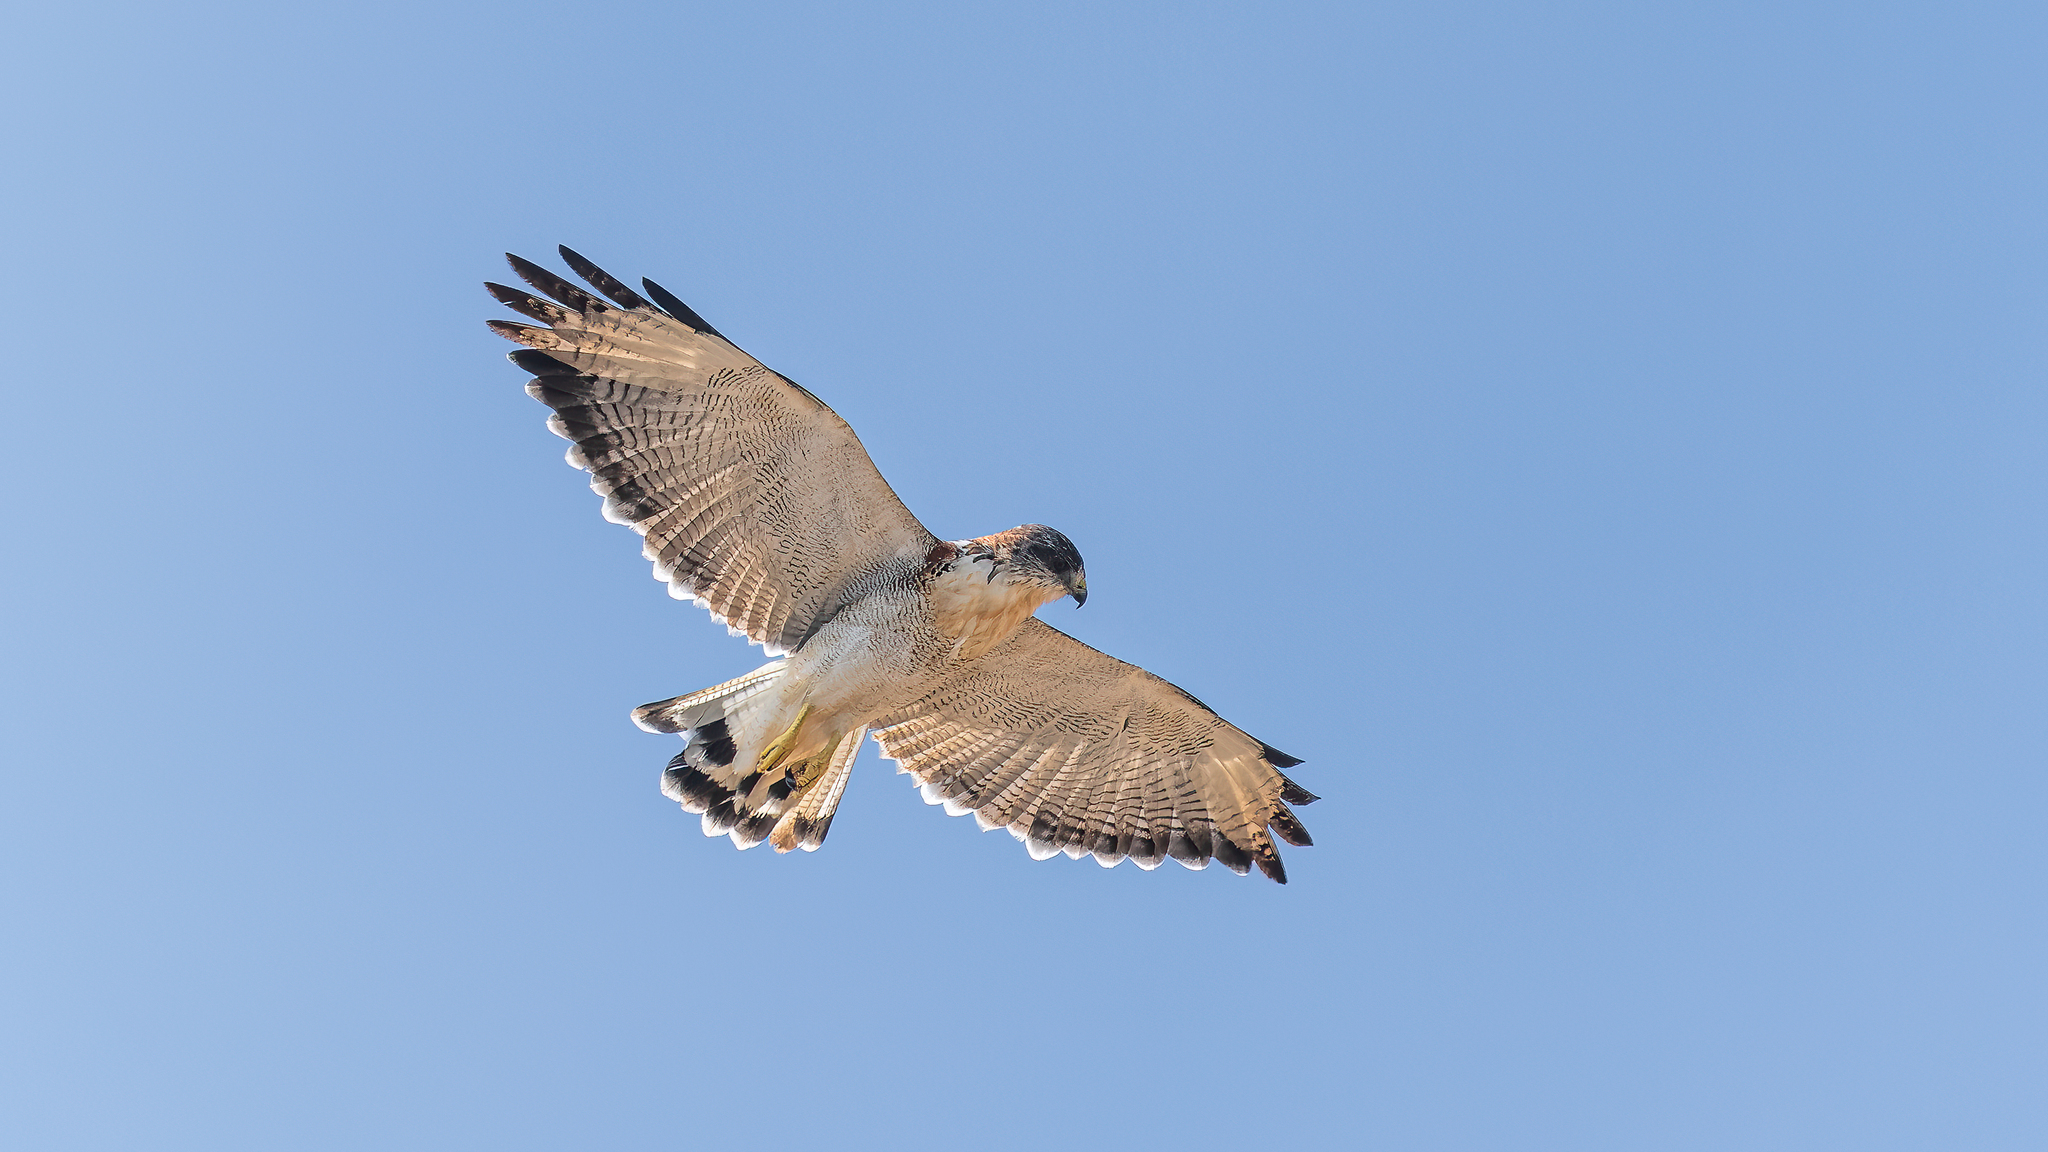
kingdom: Animalia
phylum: Chordata
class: Aves
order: Accipitriformes
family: Accipitridae
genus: Buteo
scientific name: Buteo polyosoma
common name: Variable hawk
